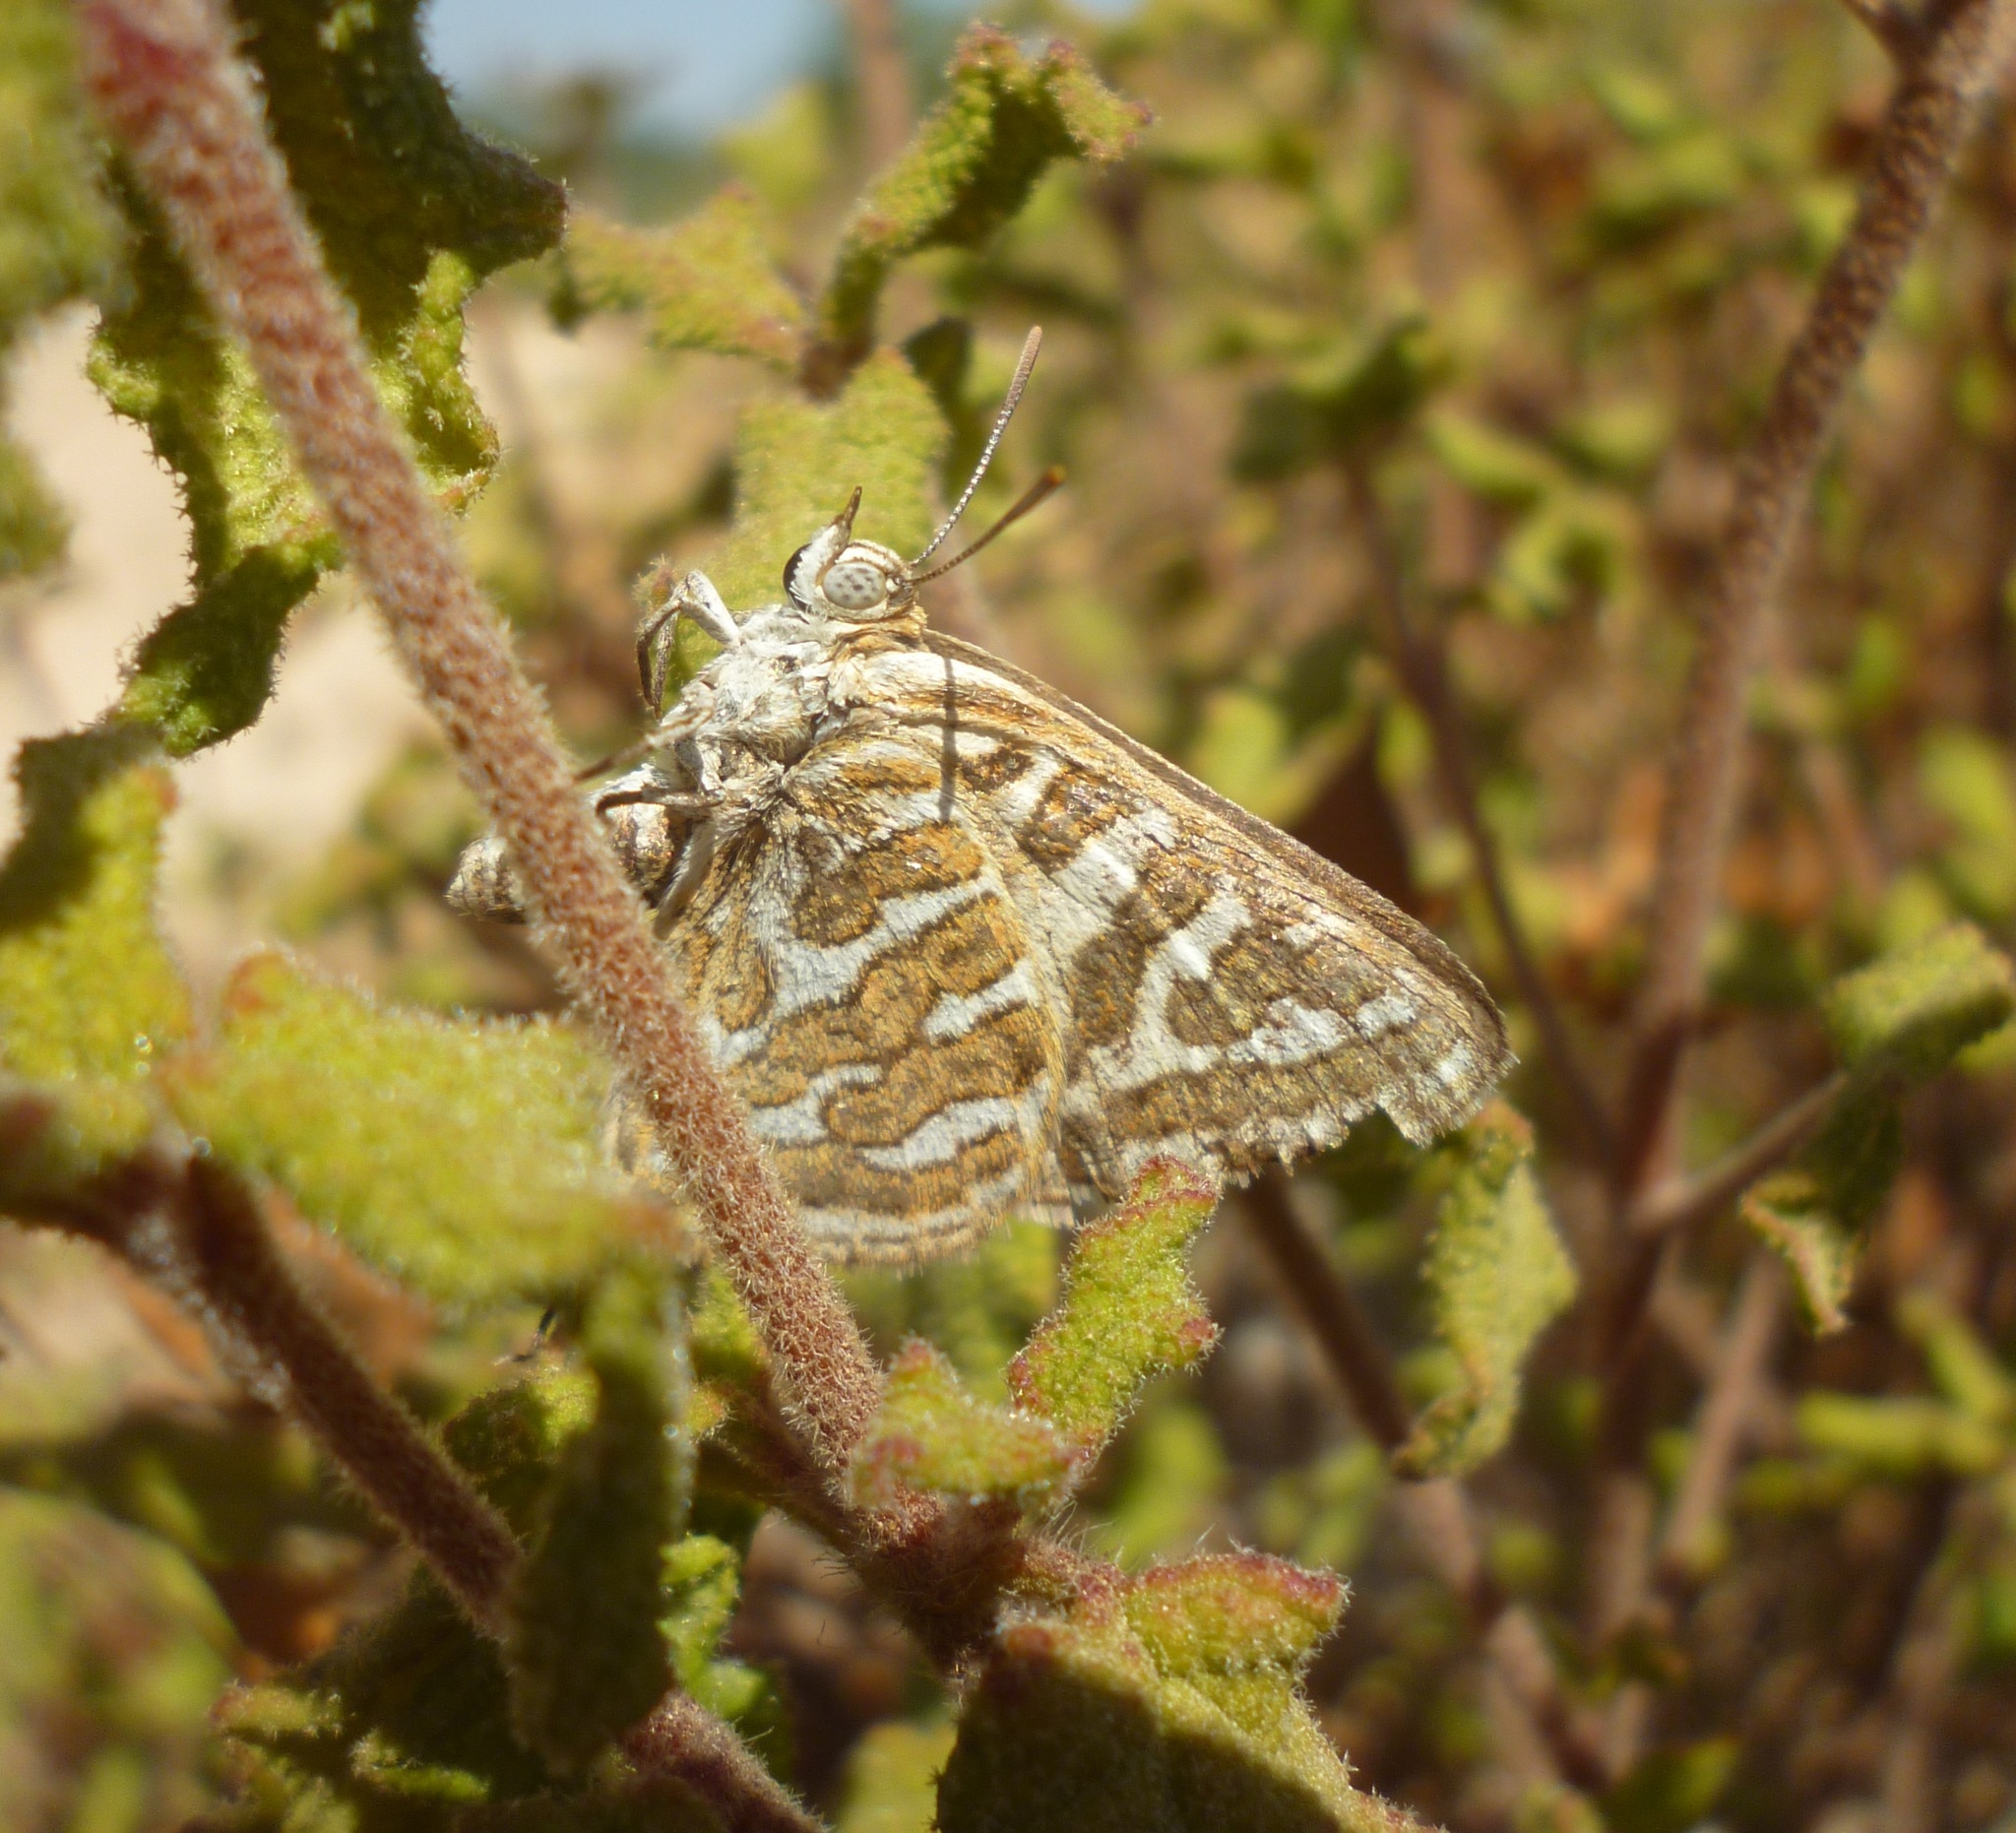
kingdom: Animalia
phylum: Arthropoda
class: Insecta
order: Lepidoptera
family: Lycaenidae
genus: Cigaritis
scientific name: Cigaritis acamas
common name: Levantine leopard
